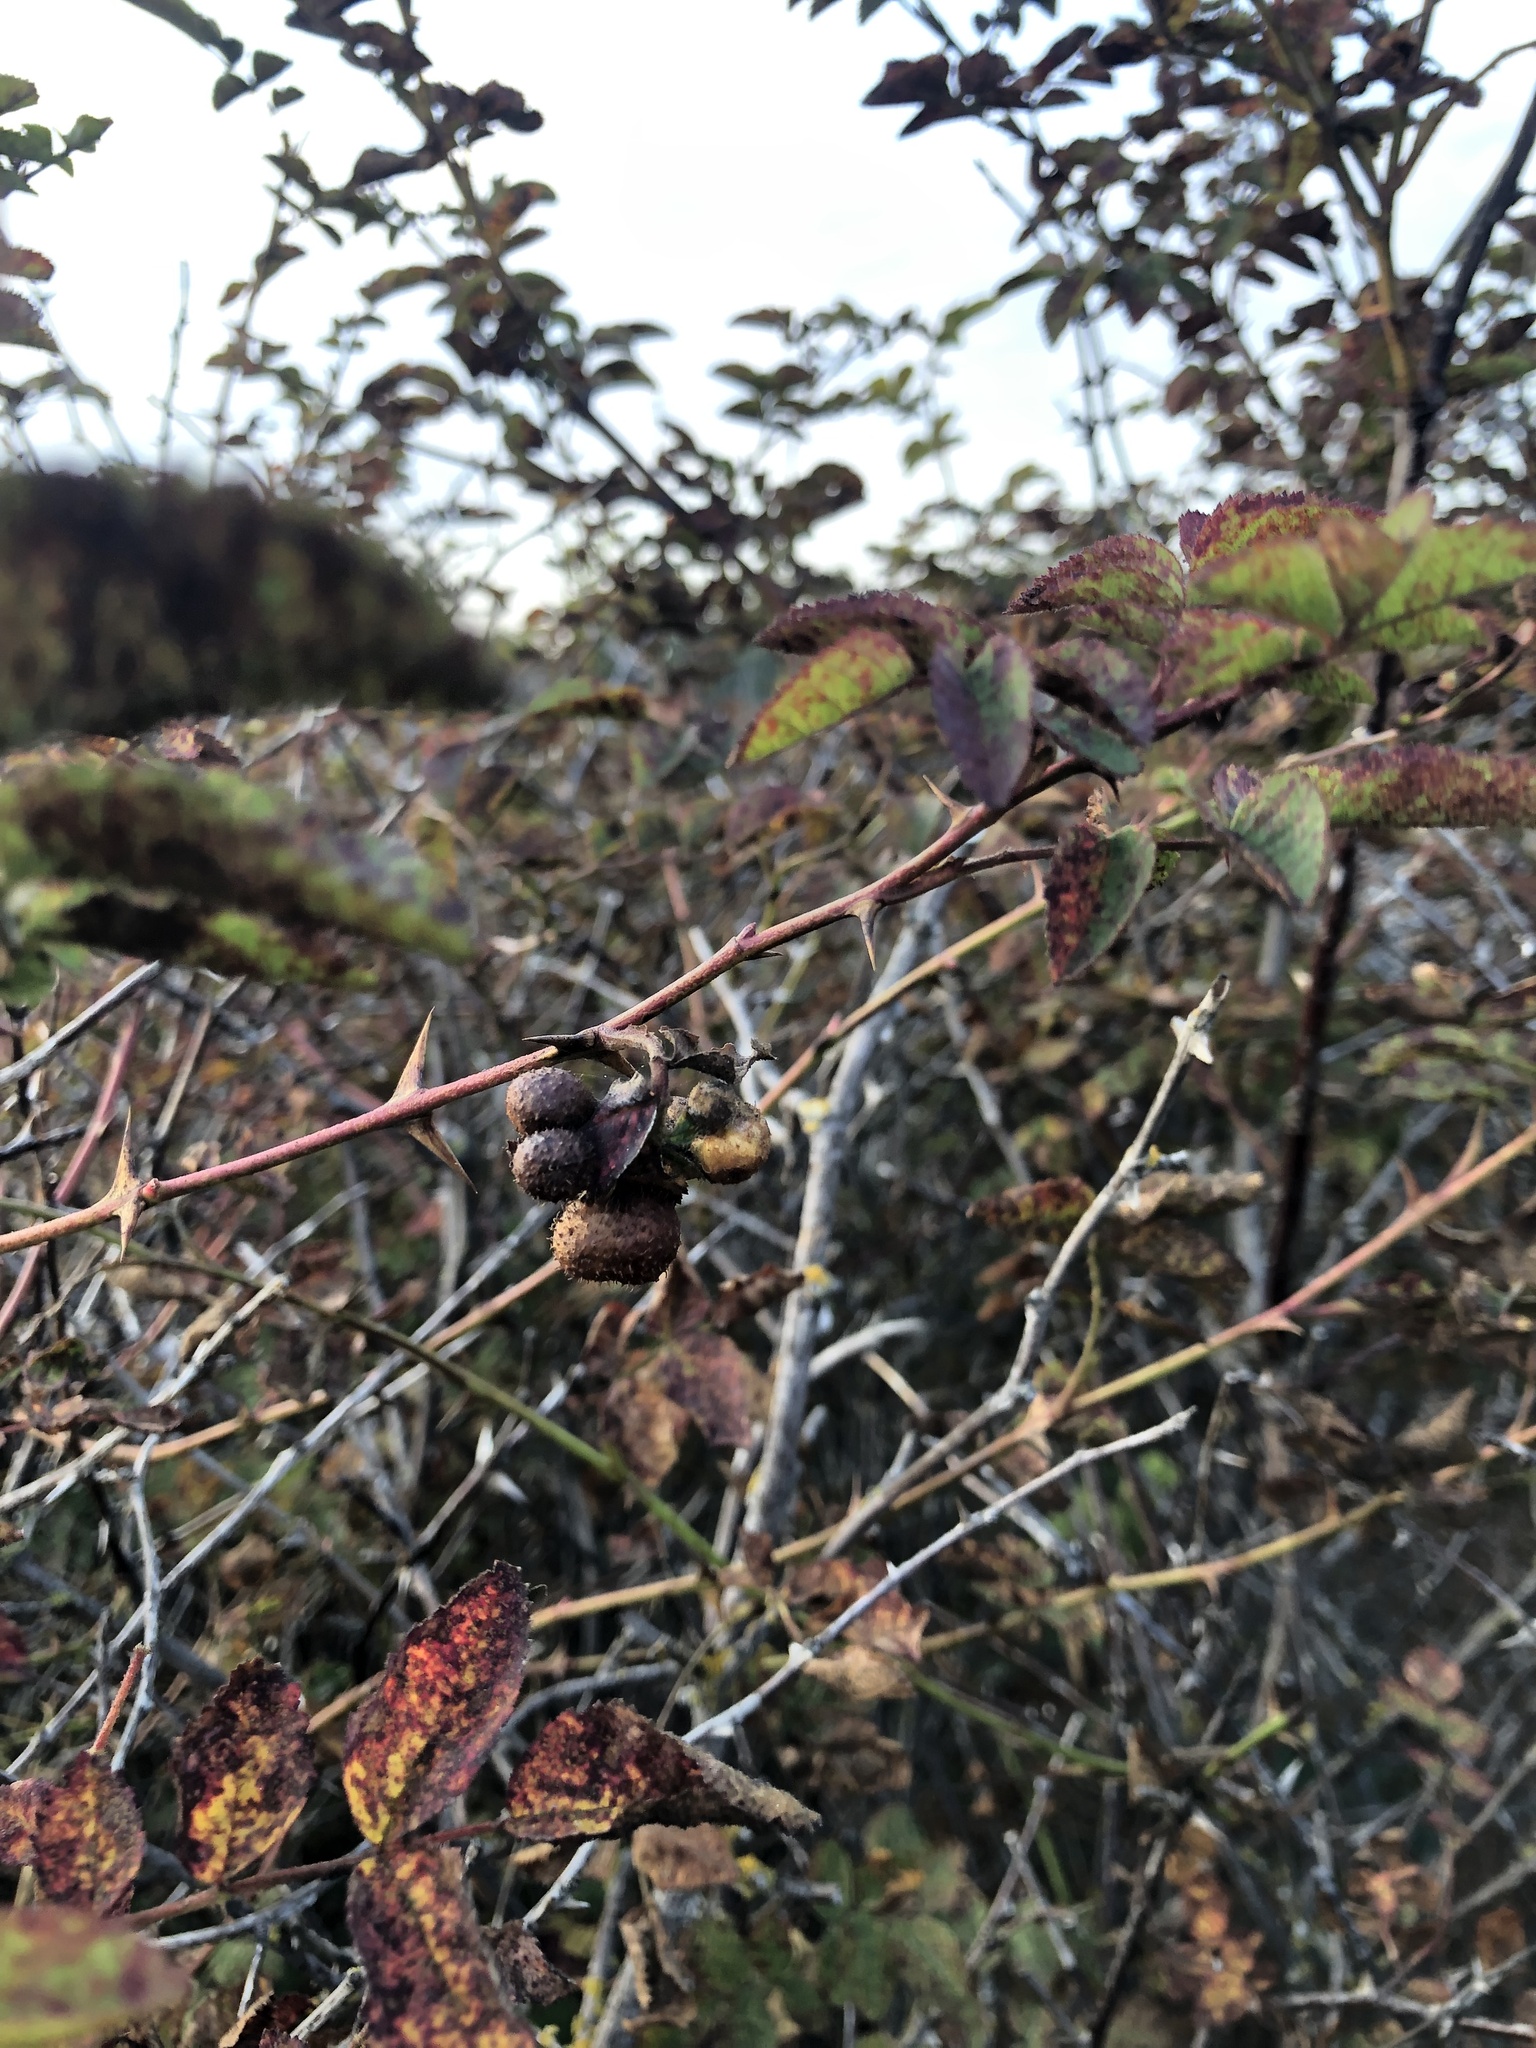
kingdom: Animalia
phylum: Arthropoda
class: Insecta
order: Hymenoptera
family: Cynipidae
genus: Diplolepis
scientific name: Diplolepis polita
